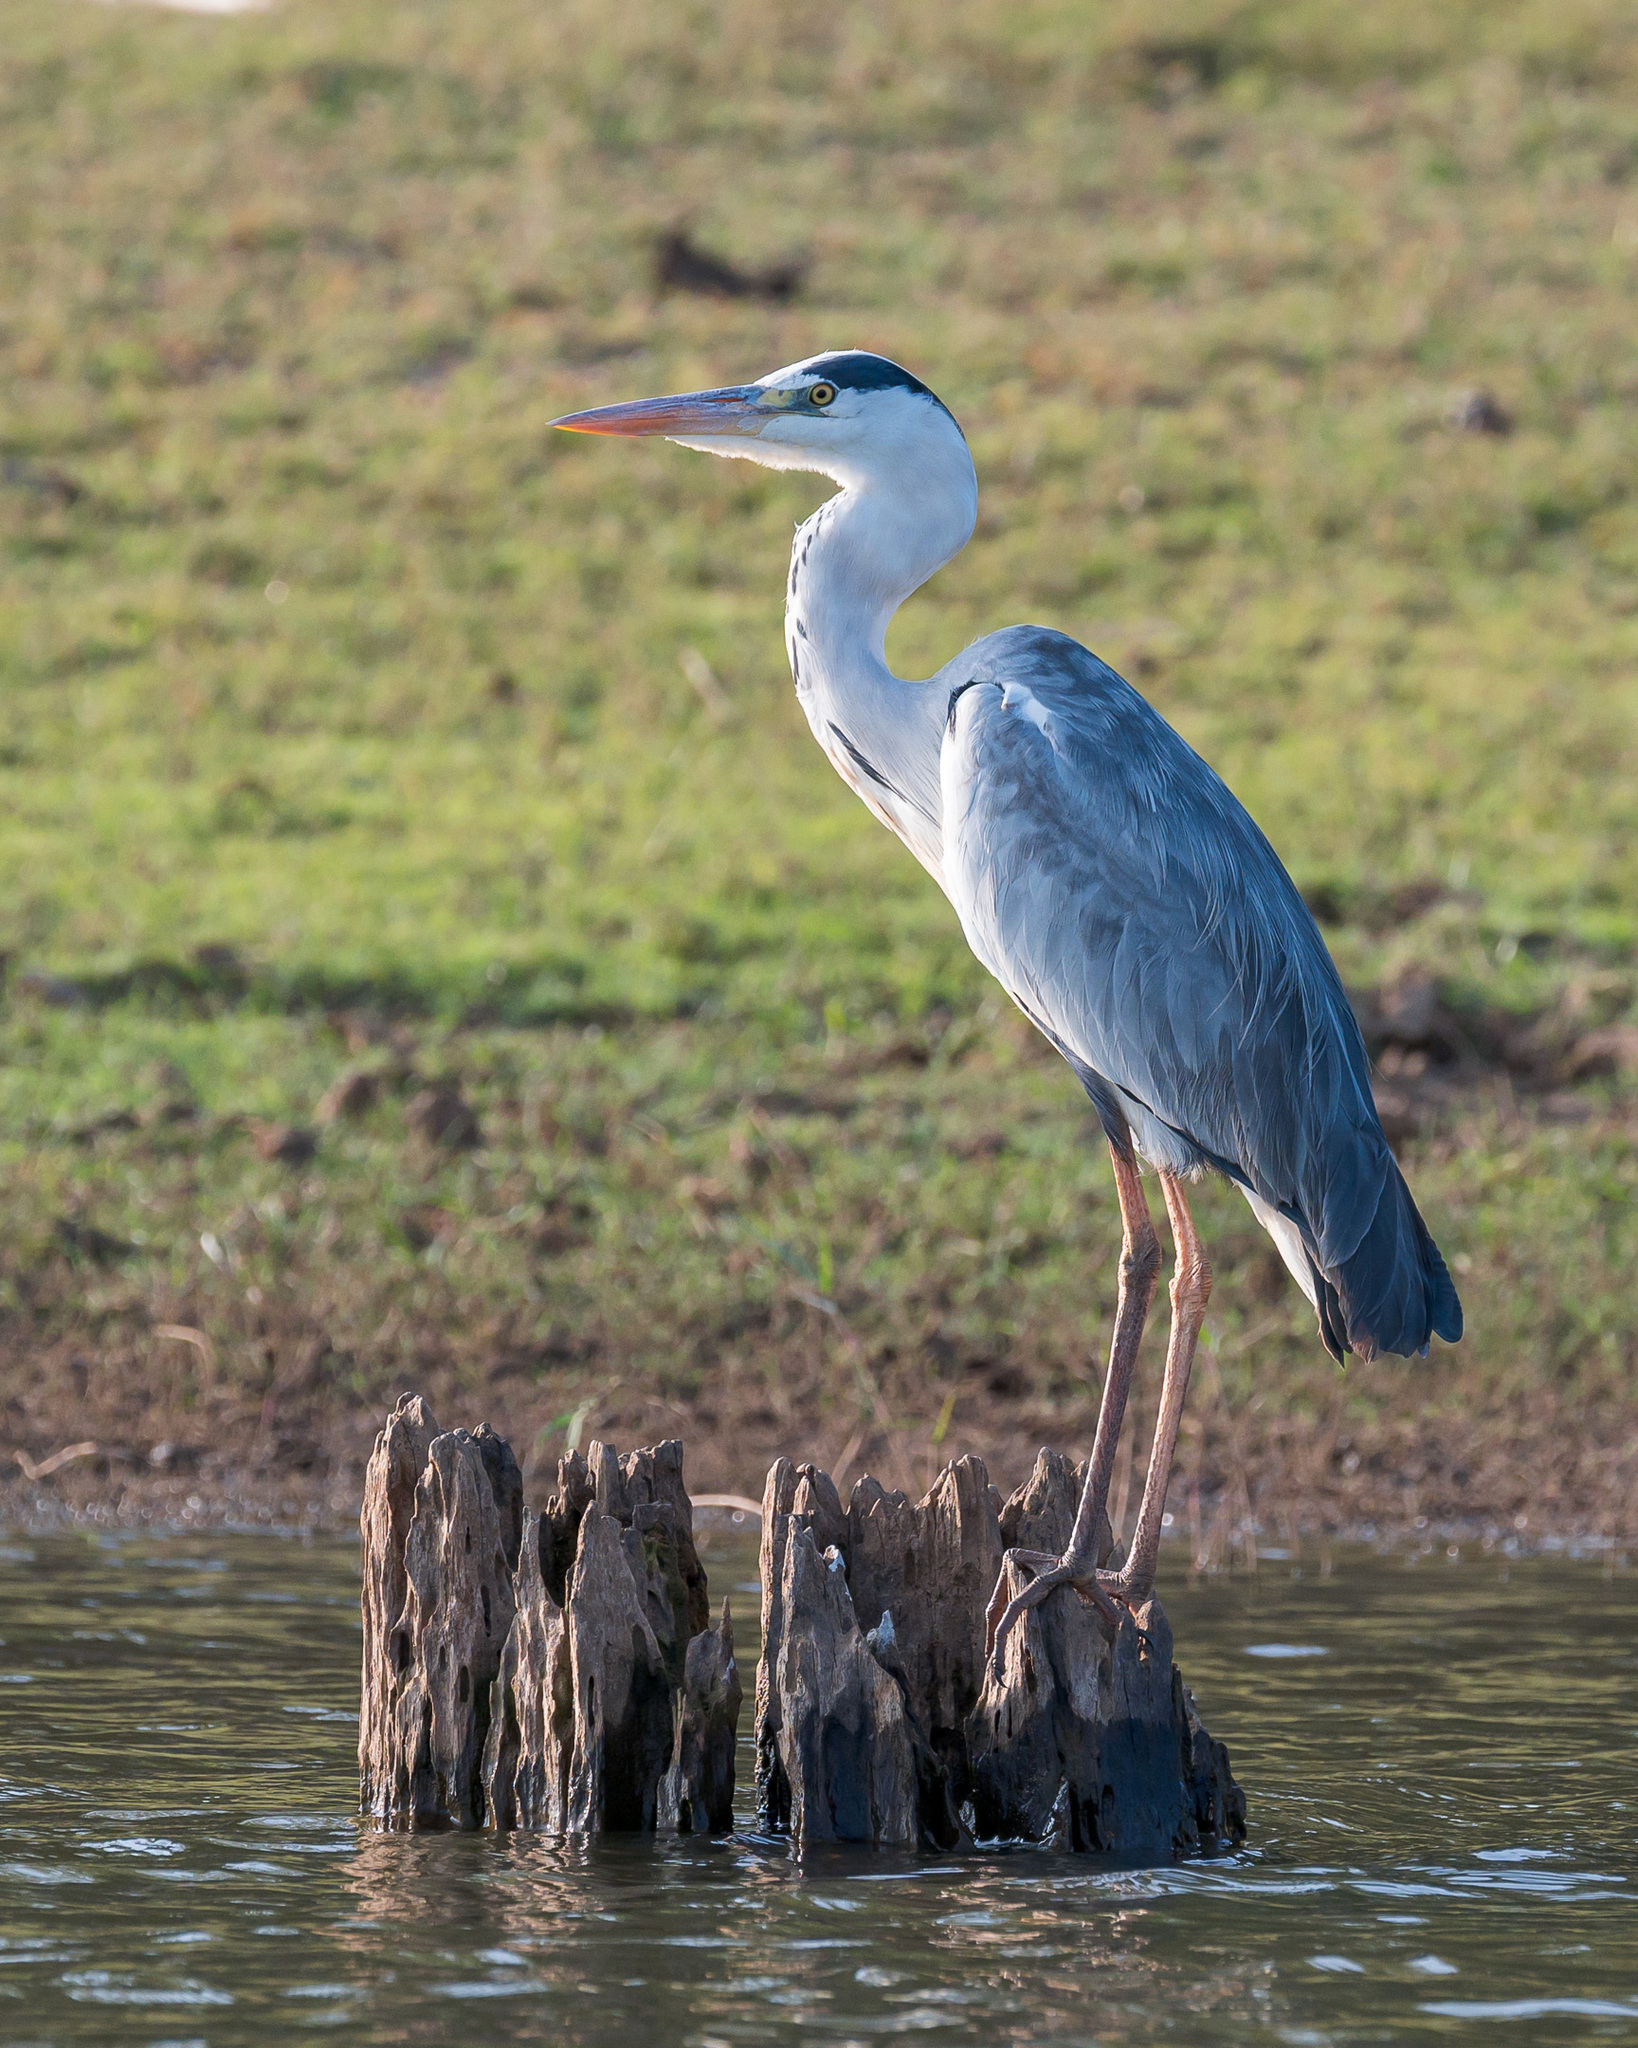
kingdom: Animalia
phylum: Chordata
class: Aves
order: Pelecaniformes
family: Ardeidae
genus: Ardea
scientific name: Ardea cinerea
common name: Grey heron
